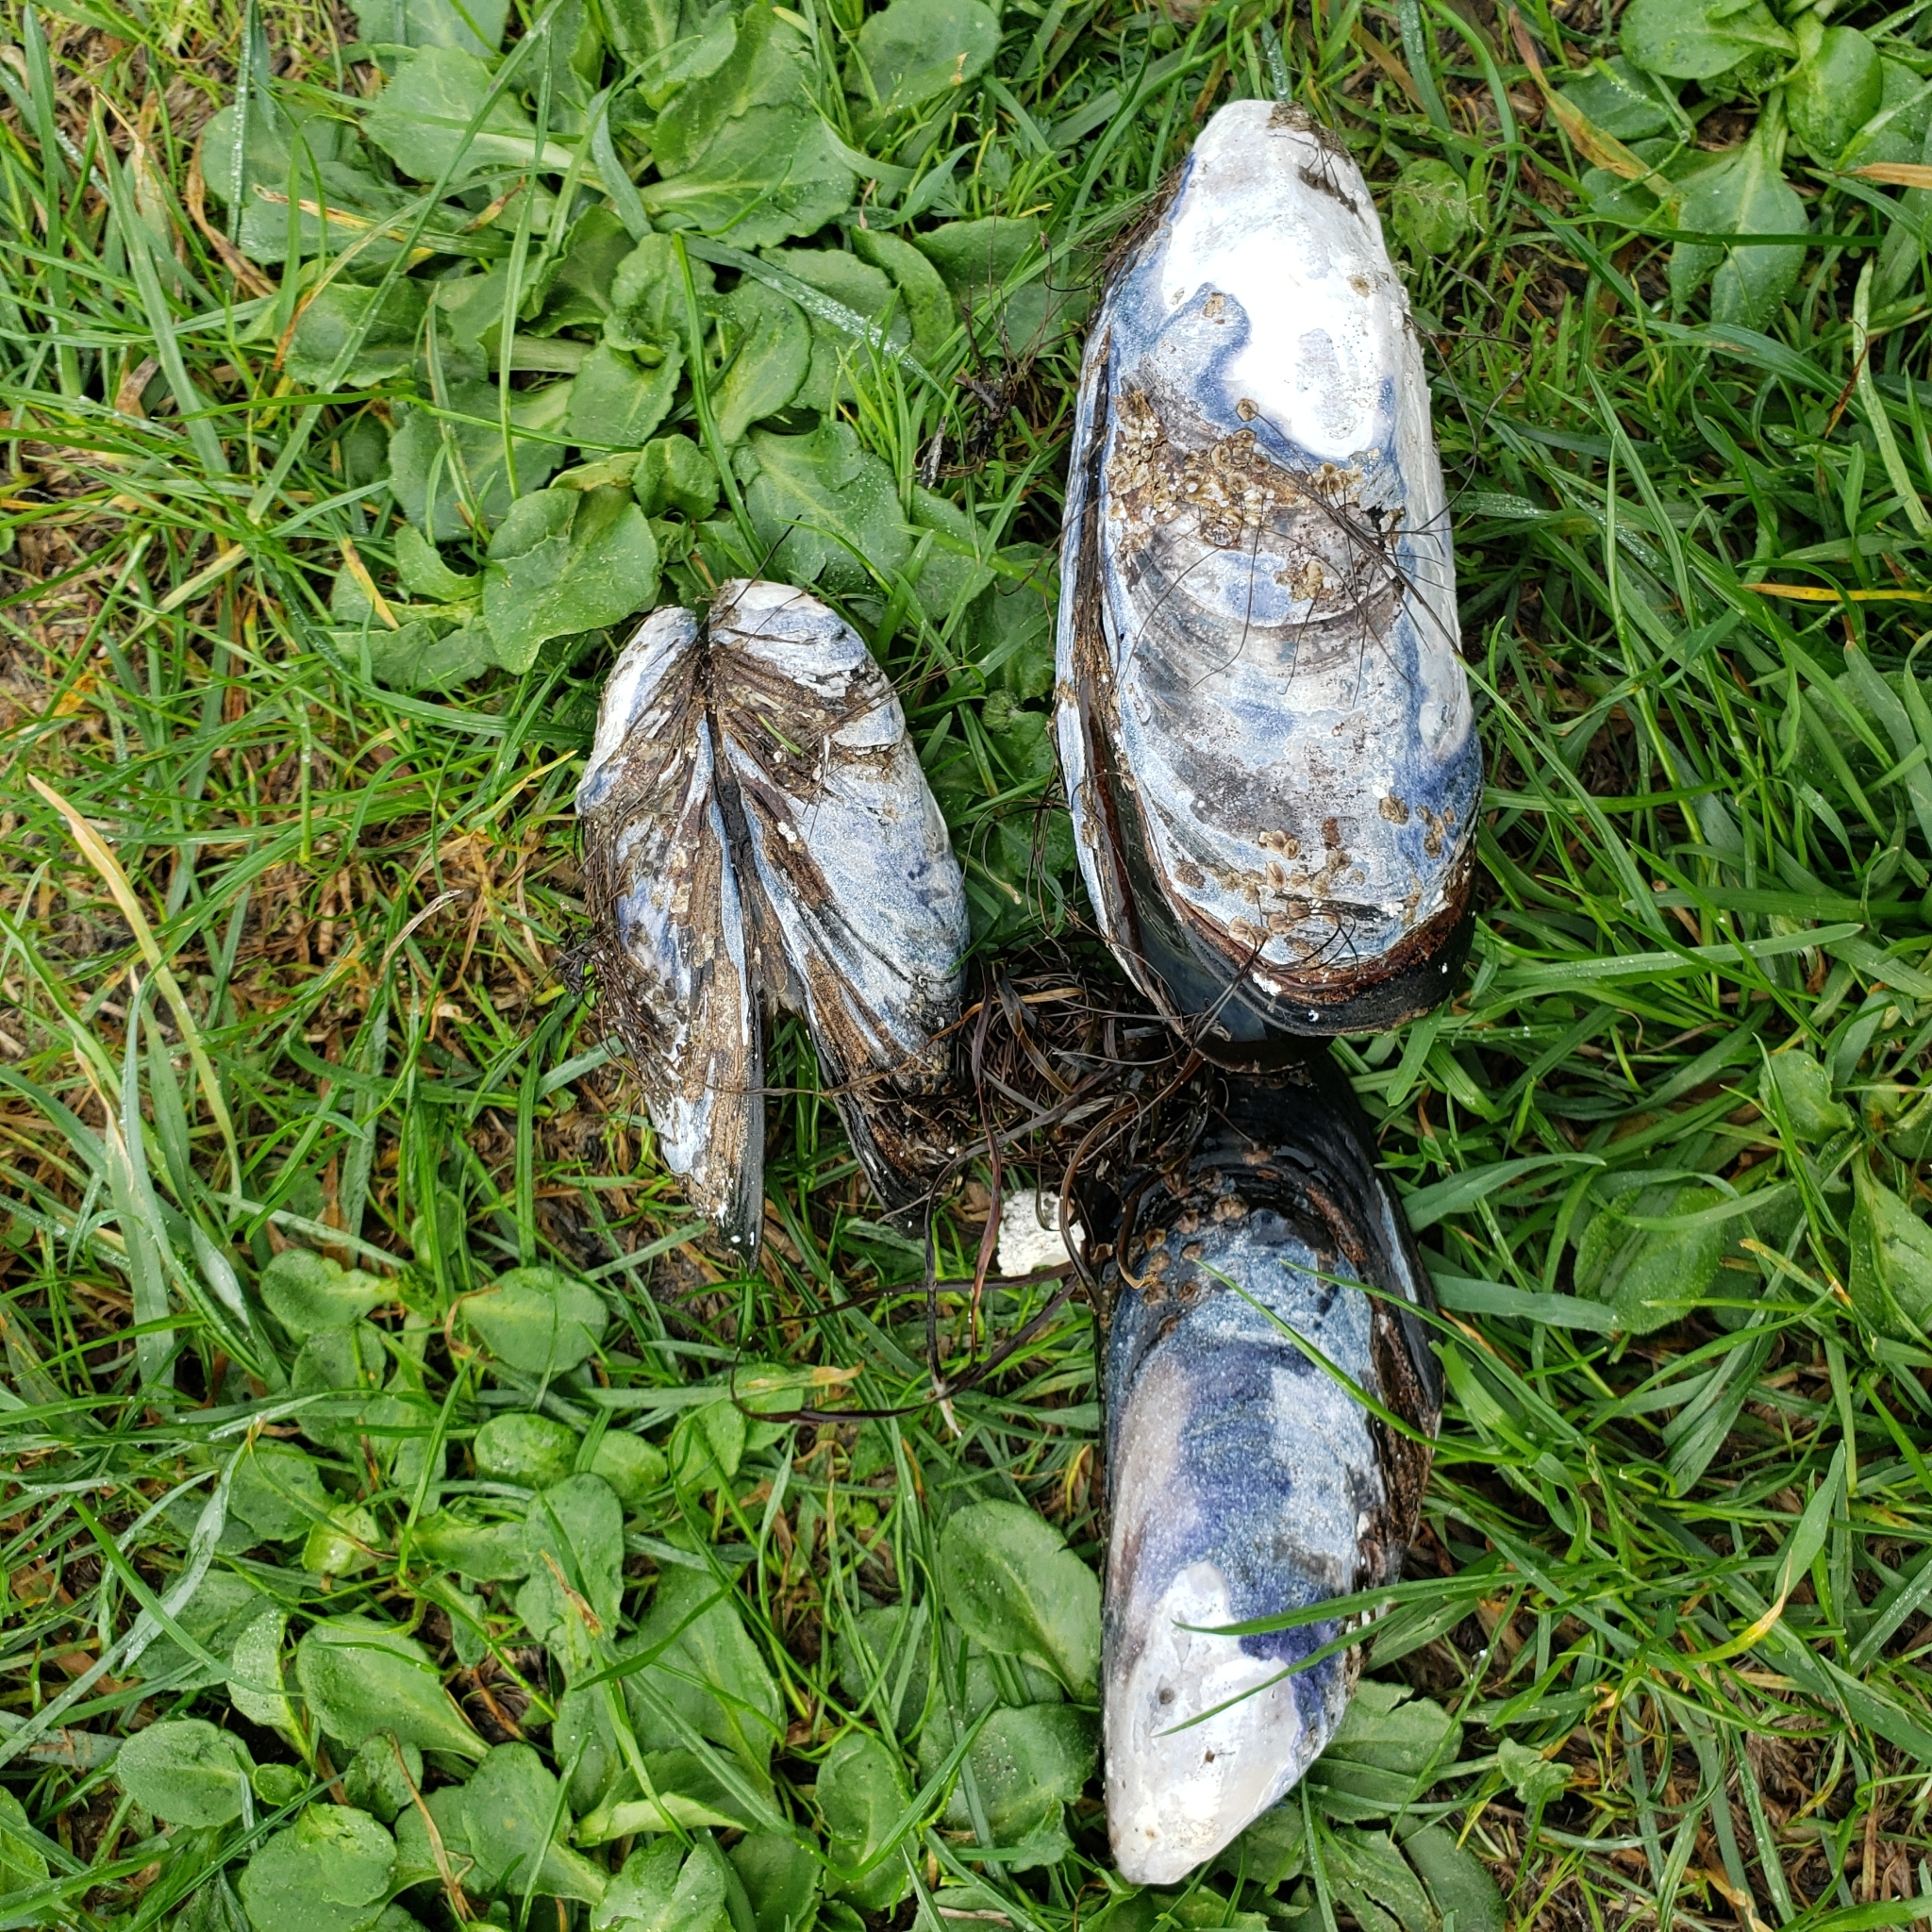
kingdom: Animalia
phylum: Mollusca
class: Bivalvia
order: Mytilida
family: Mytilidae
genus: Mytilus
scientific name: Mytilus californianus
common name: California mussel
